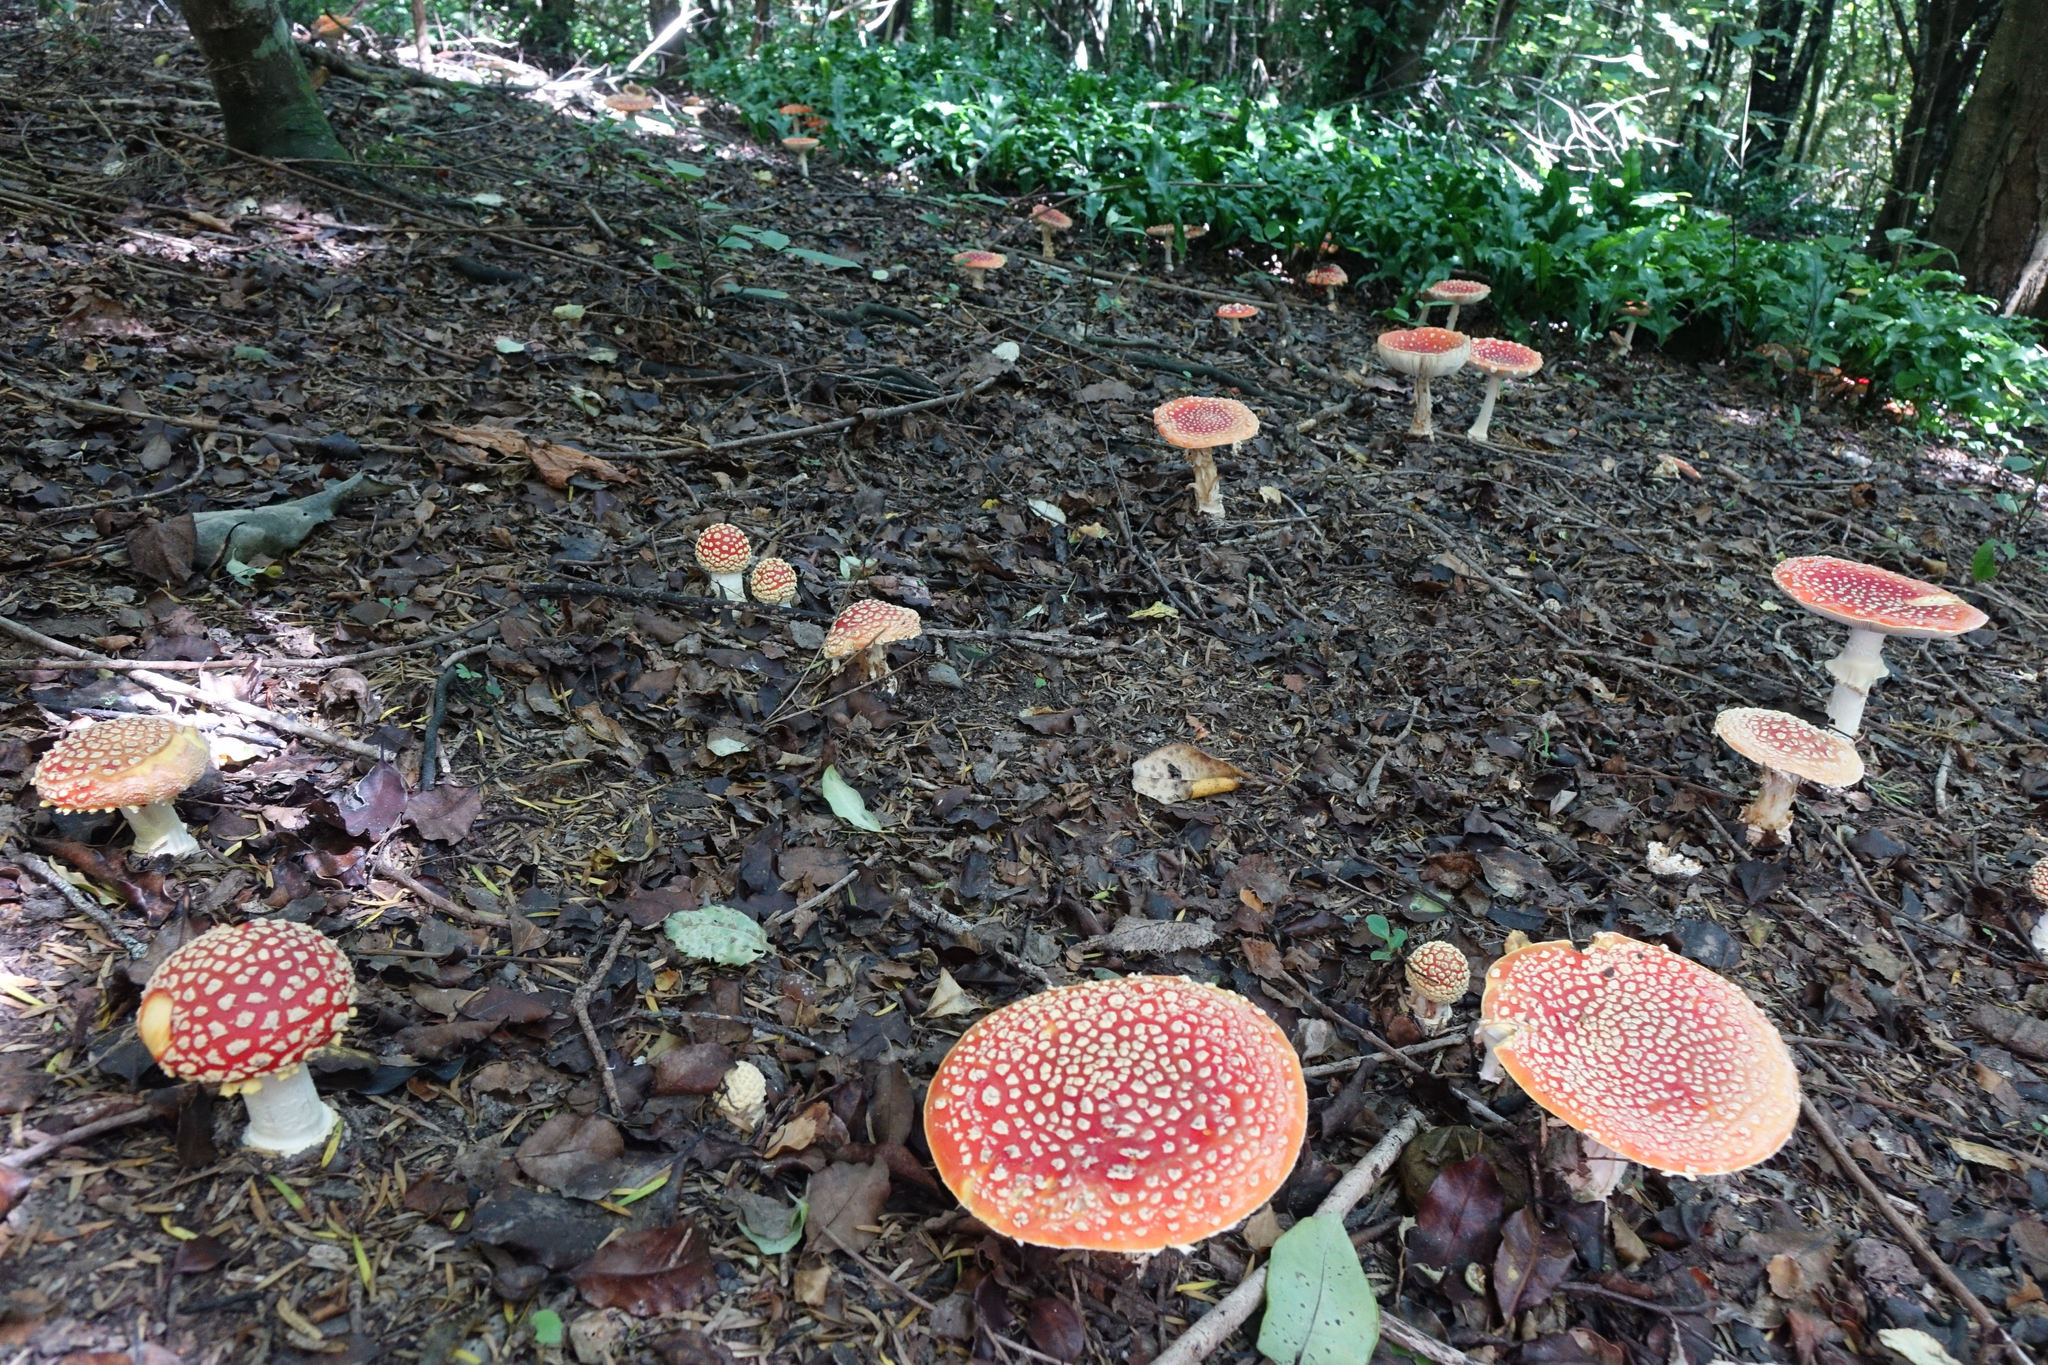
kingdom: Fungi
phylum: Basidiomycota
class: Agaricomycetes
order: Agaricales
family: Amanitaceae
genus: Amanita
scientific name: Amanita muscaria
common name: Fly agaric
